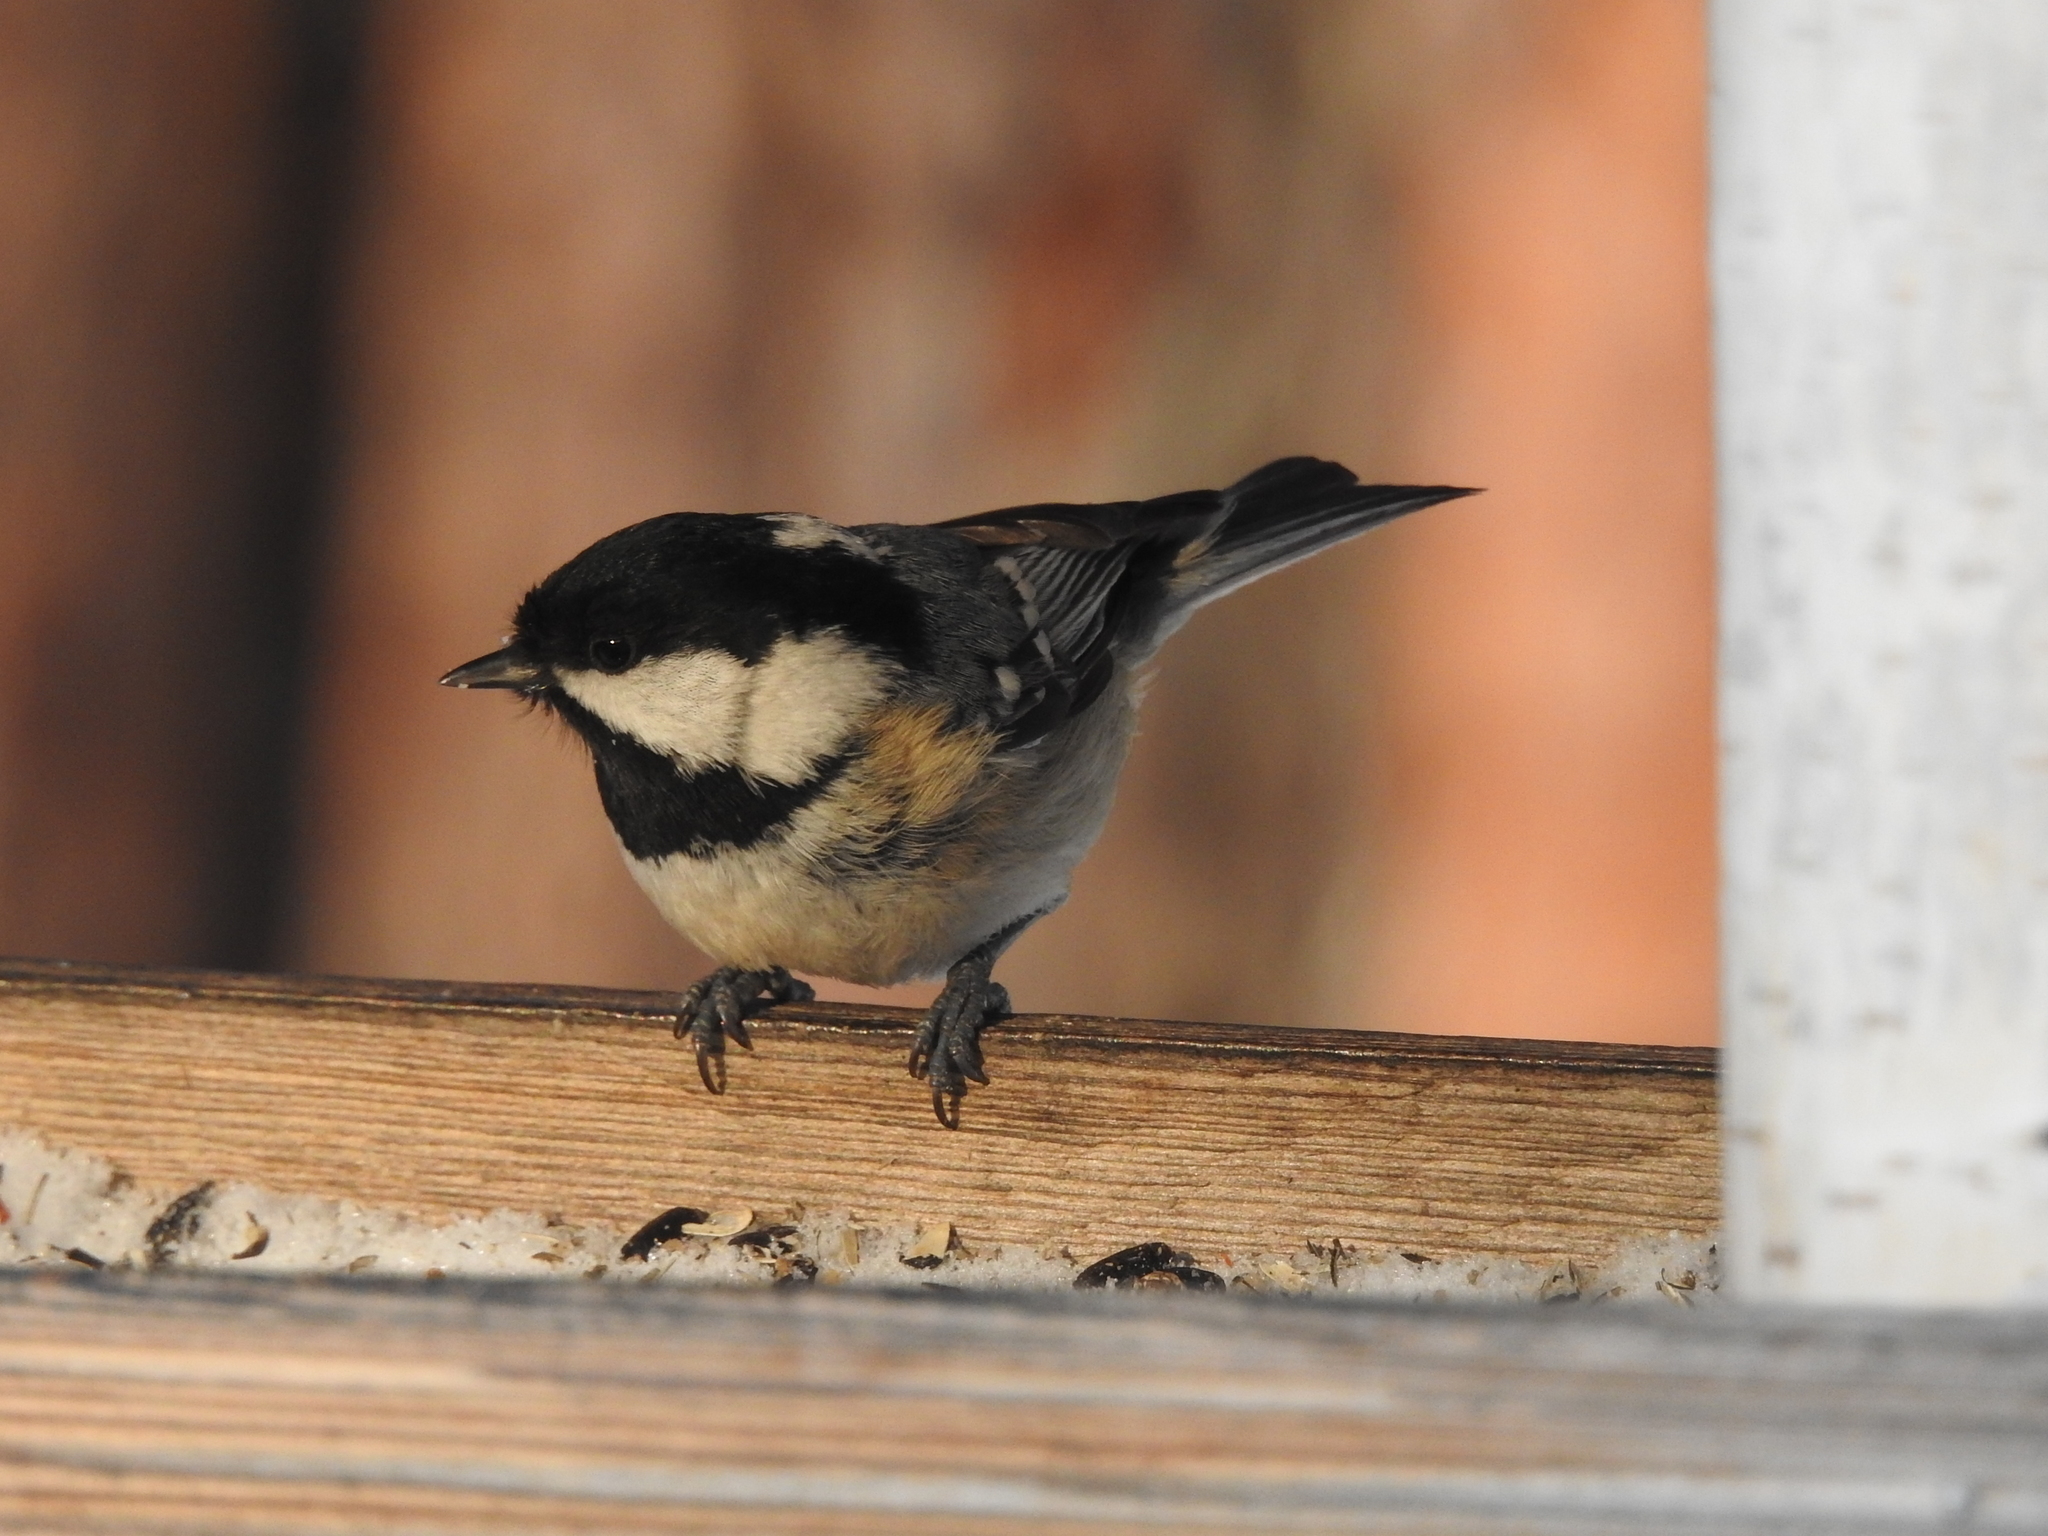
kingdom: Animalia
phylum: Chordata
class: Aves
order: Passeriformes
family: Paridae
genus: Periparus
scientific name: Periparus ater
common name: Coal tit
